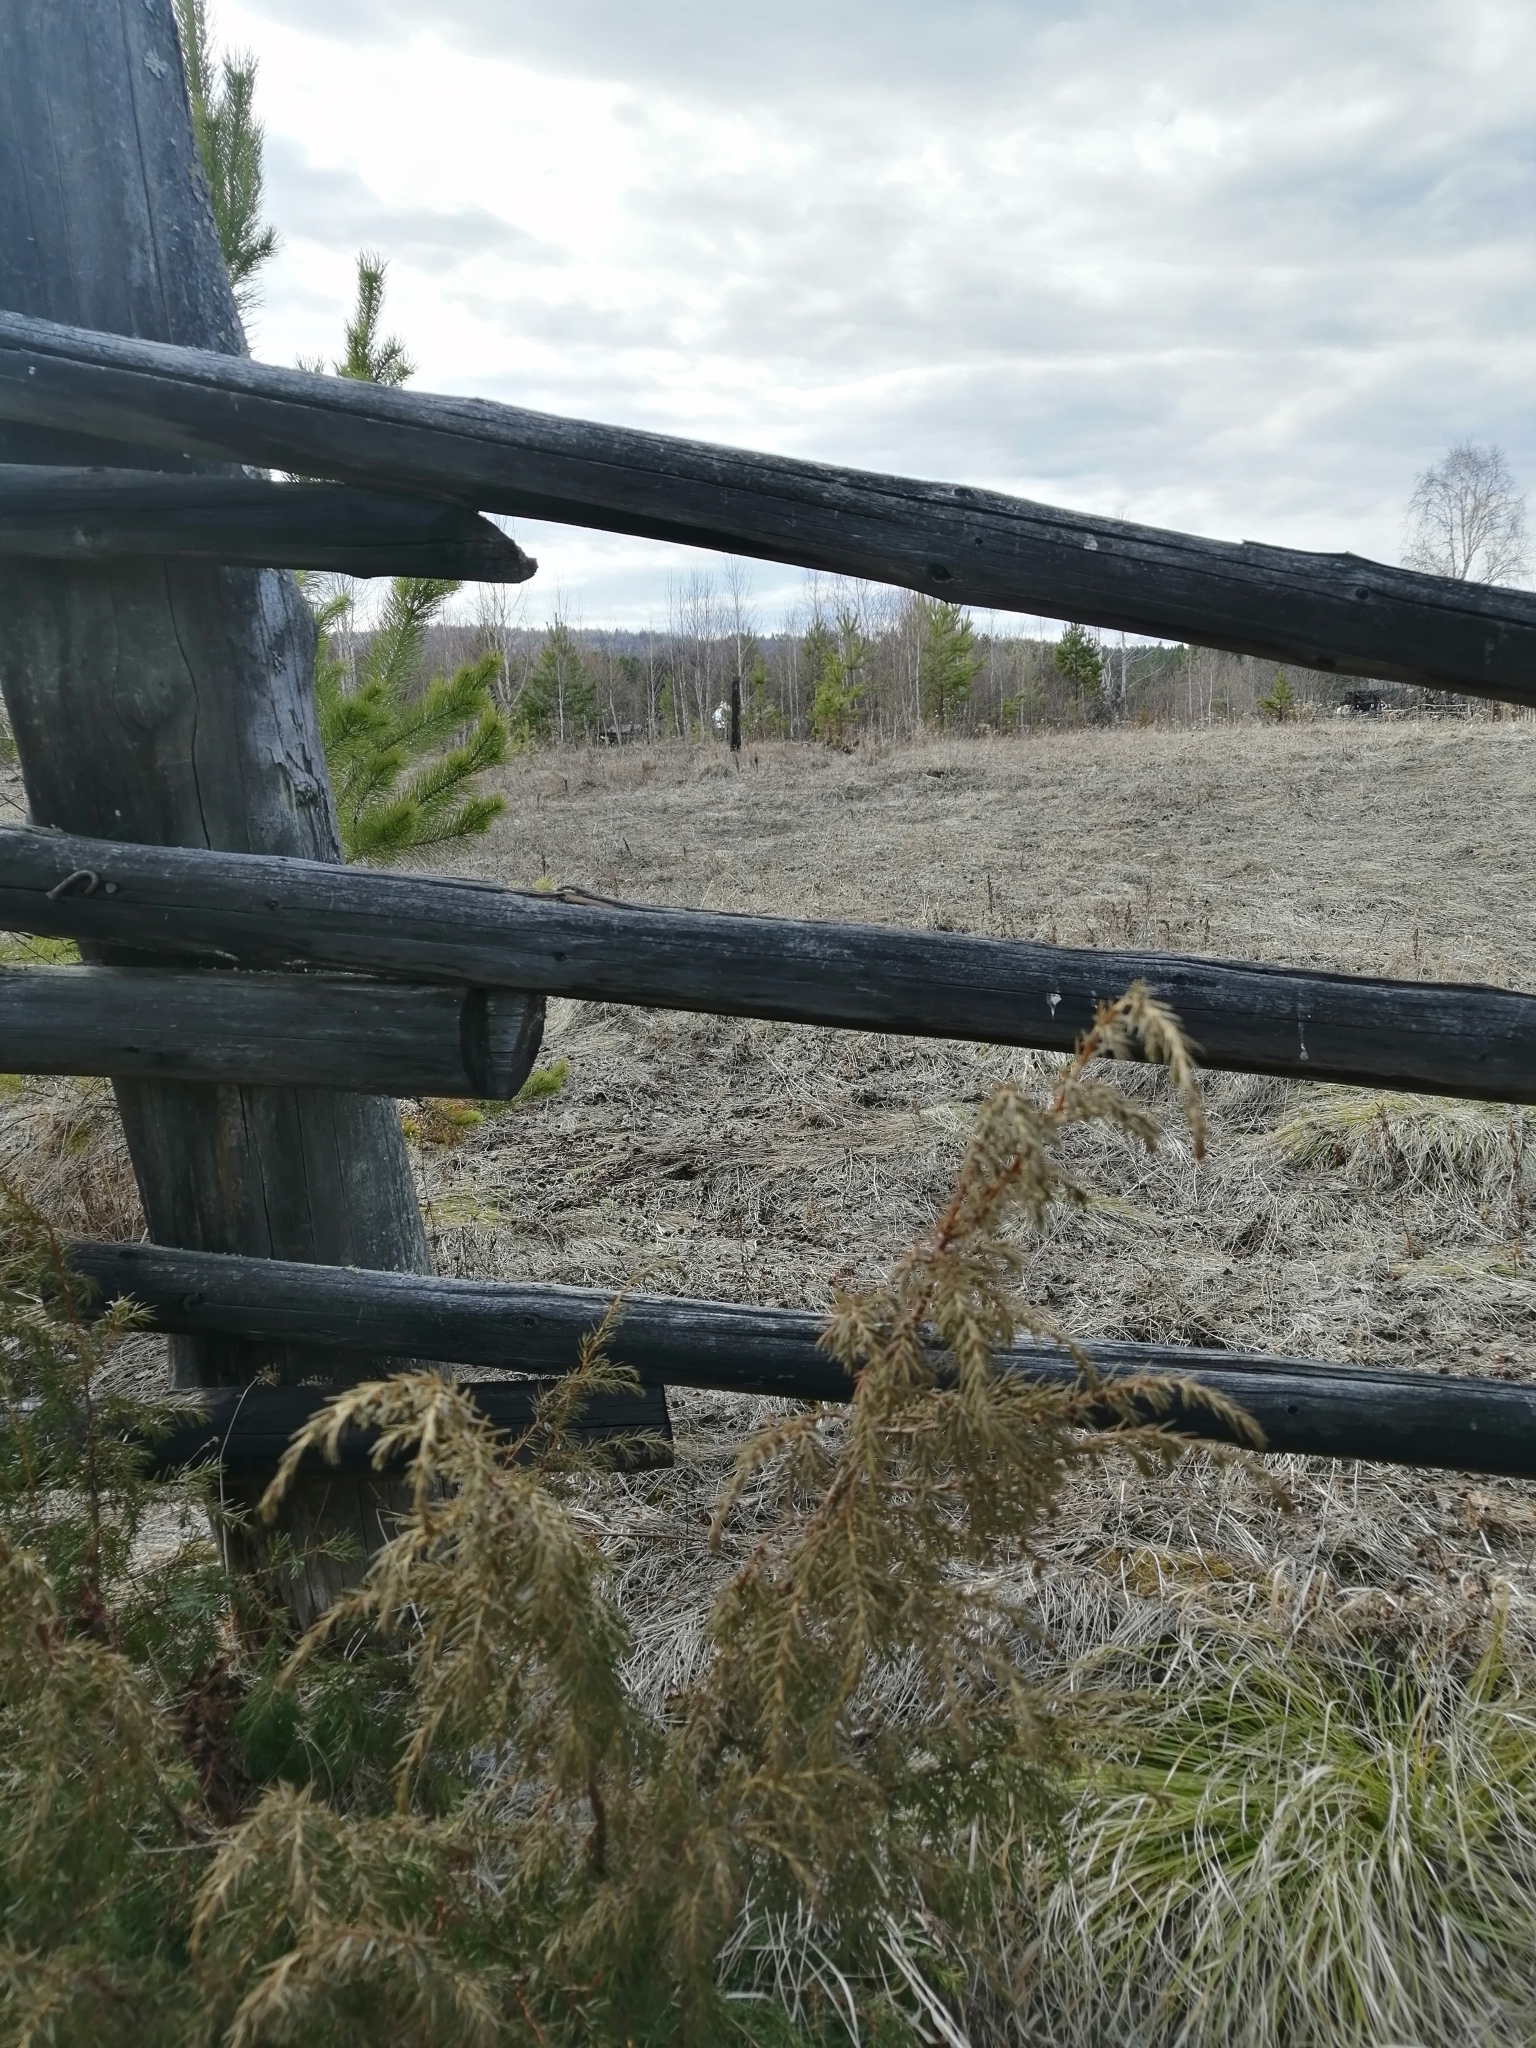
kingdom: Plantae
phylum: Tracheophyta
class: Pinopsida
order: Pinales
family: Cupressaceae
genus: Juniperus
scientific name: Juniperus communis
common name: Common juniper
